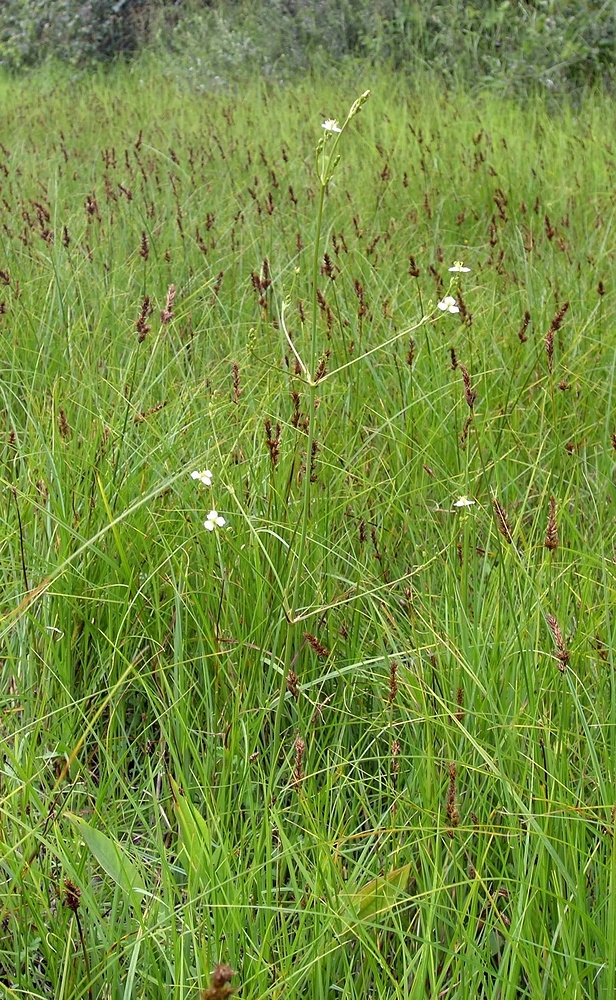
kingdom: Plantae
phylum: Tracheophyta
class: Liliopsida
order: Alismatales
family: Alismataceae
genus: Alisma
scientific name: Alisma plantago-aquatica
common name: Water-plantain
